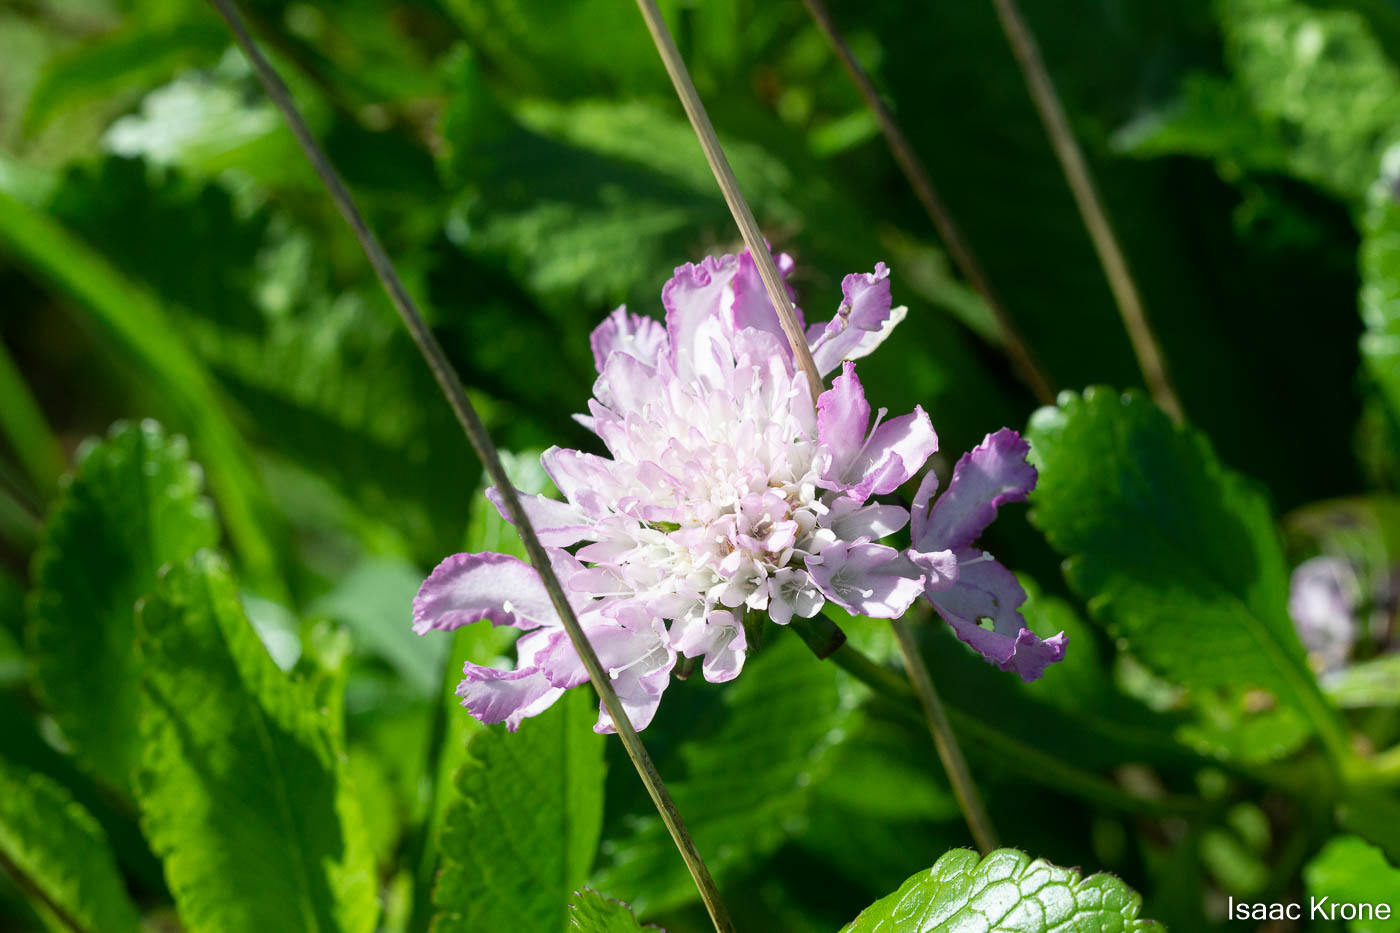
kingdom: Plantae
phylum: Tracheophyta
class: Magnoliopsida
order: Dipsacales
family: Caprifoliaceae
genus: Sixalix
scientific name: Sixalix atropurpurea
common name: Sweet scabious
